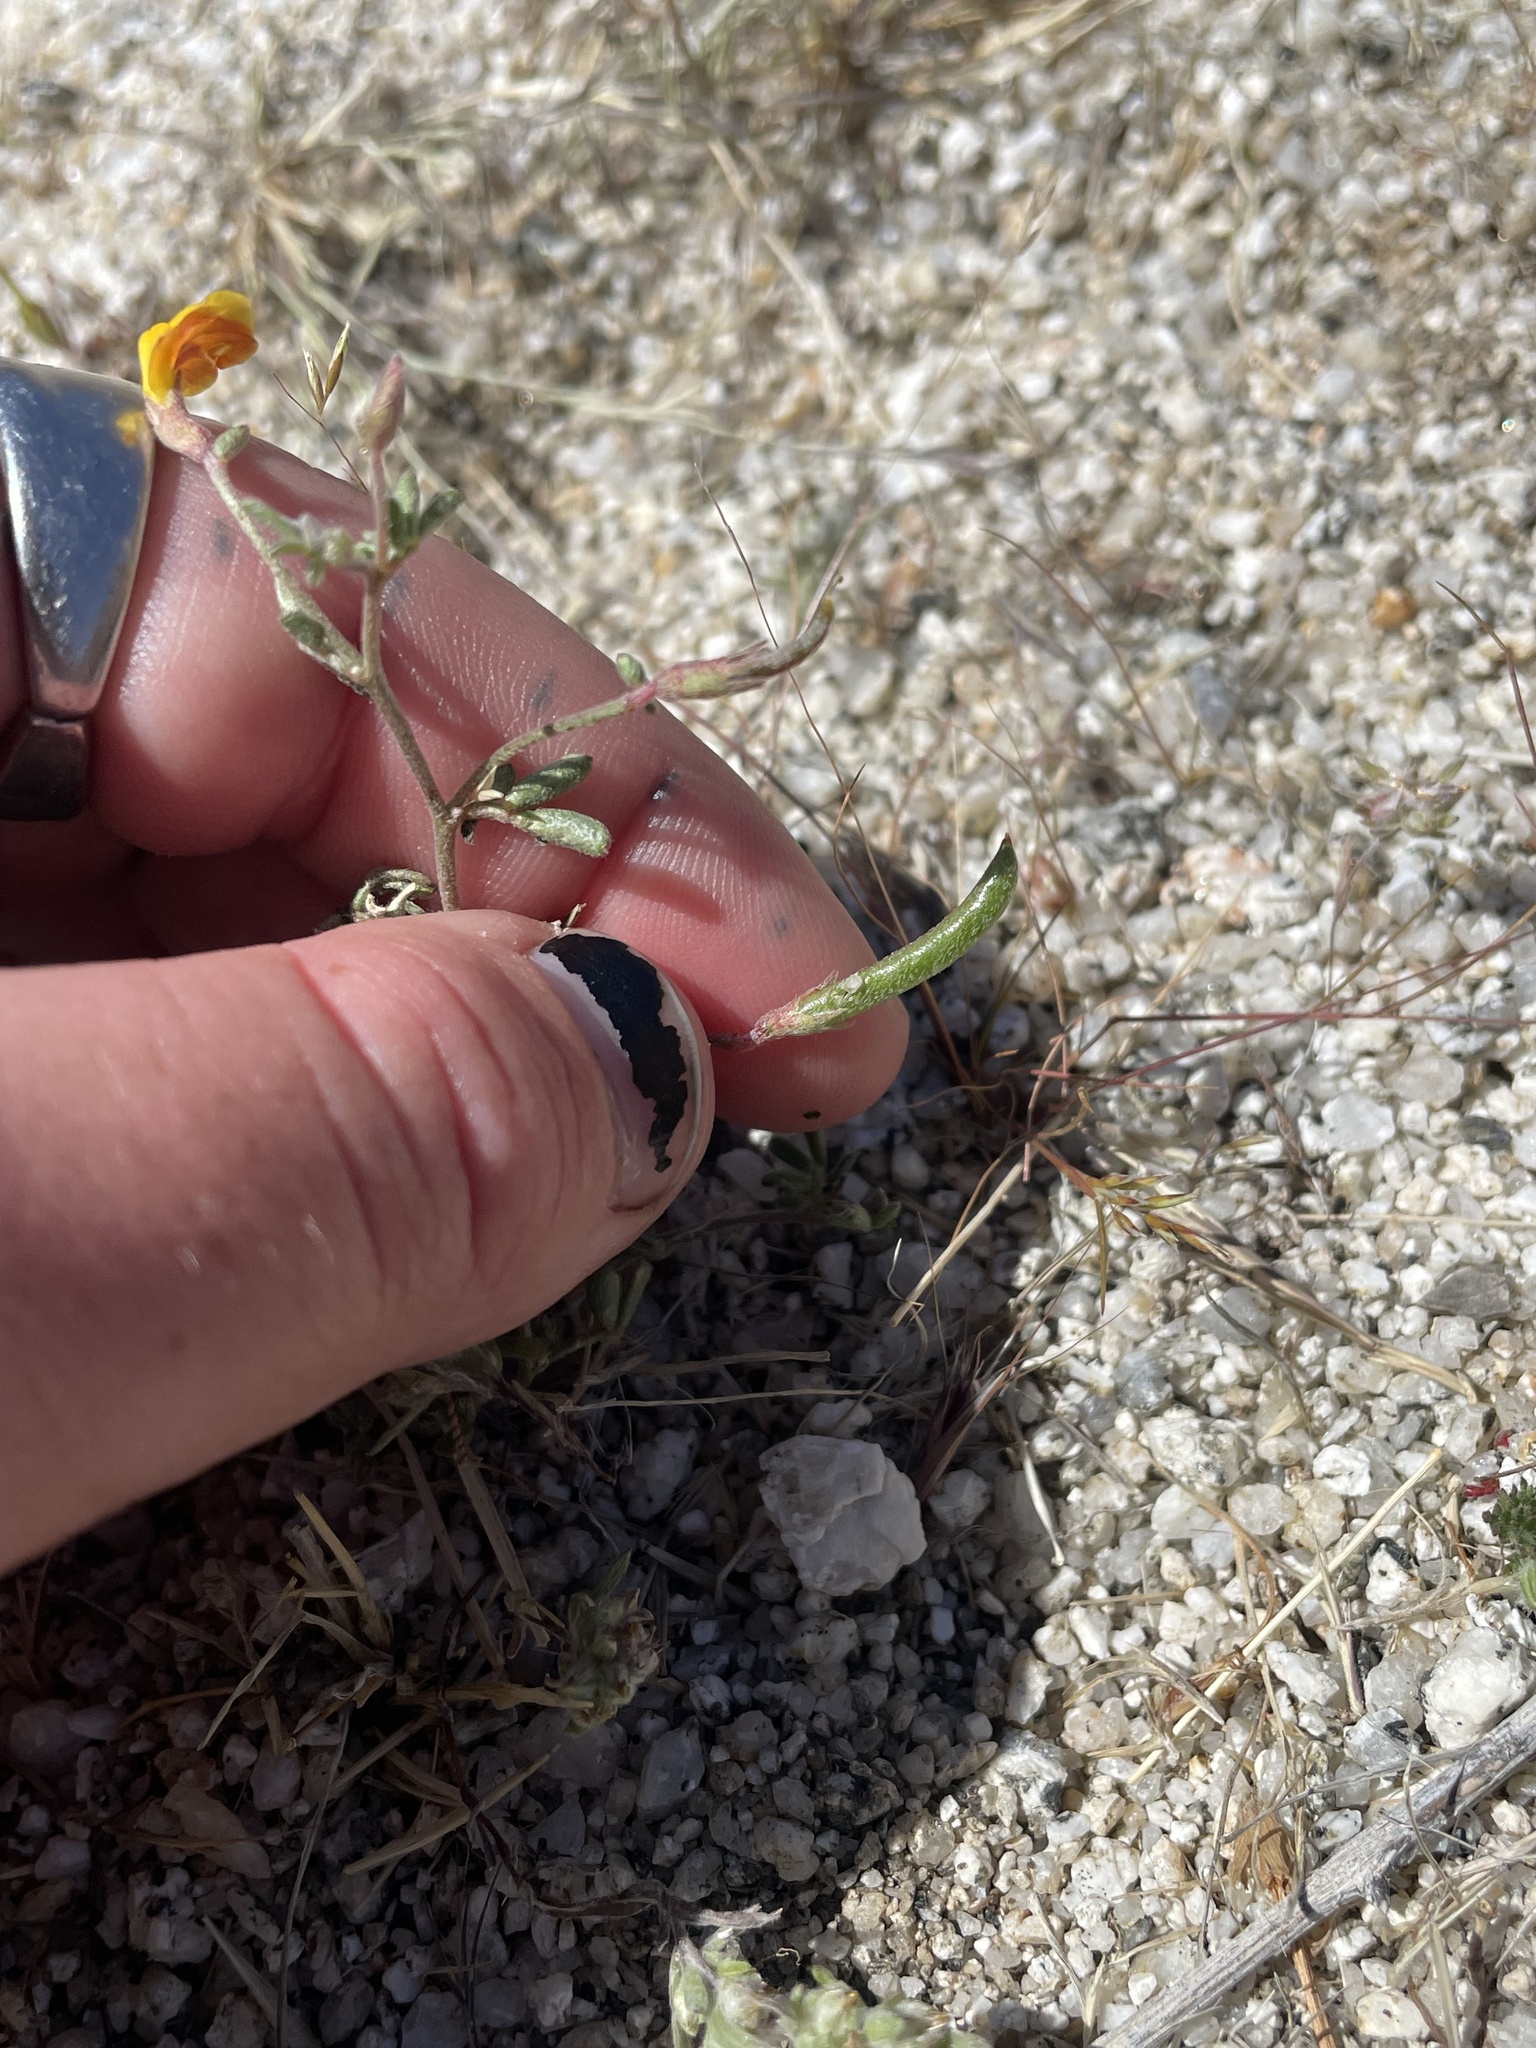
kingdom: Plantae
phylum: Tracheophyta
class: Magnoliopsida
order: Fabales
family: Fabaceae
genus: Acmispon
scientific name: Acmispon strigosus
